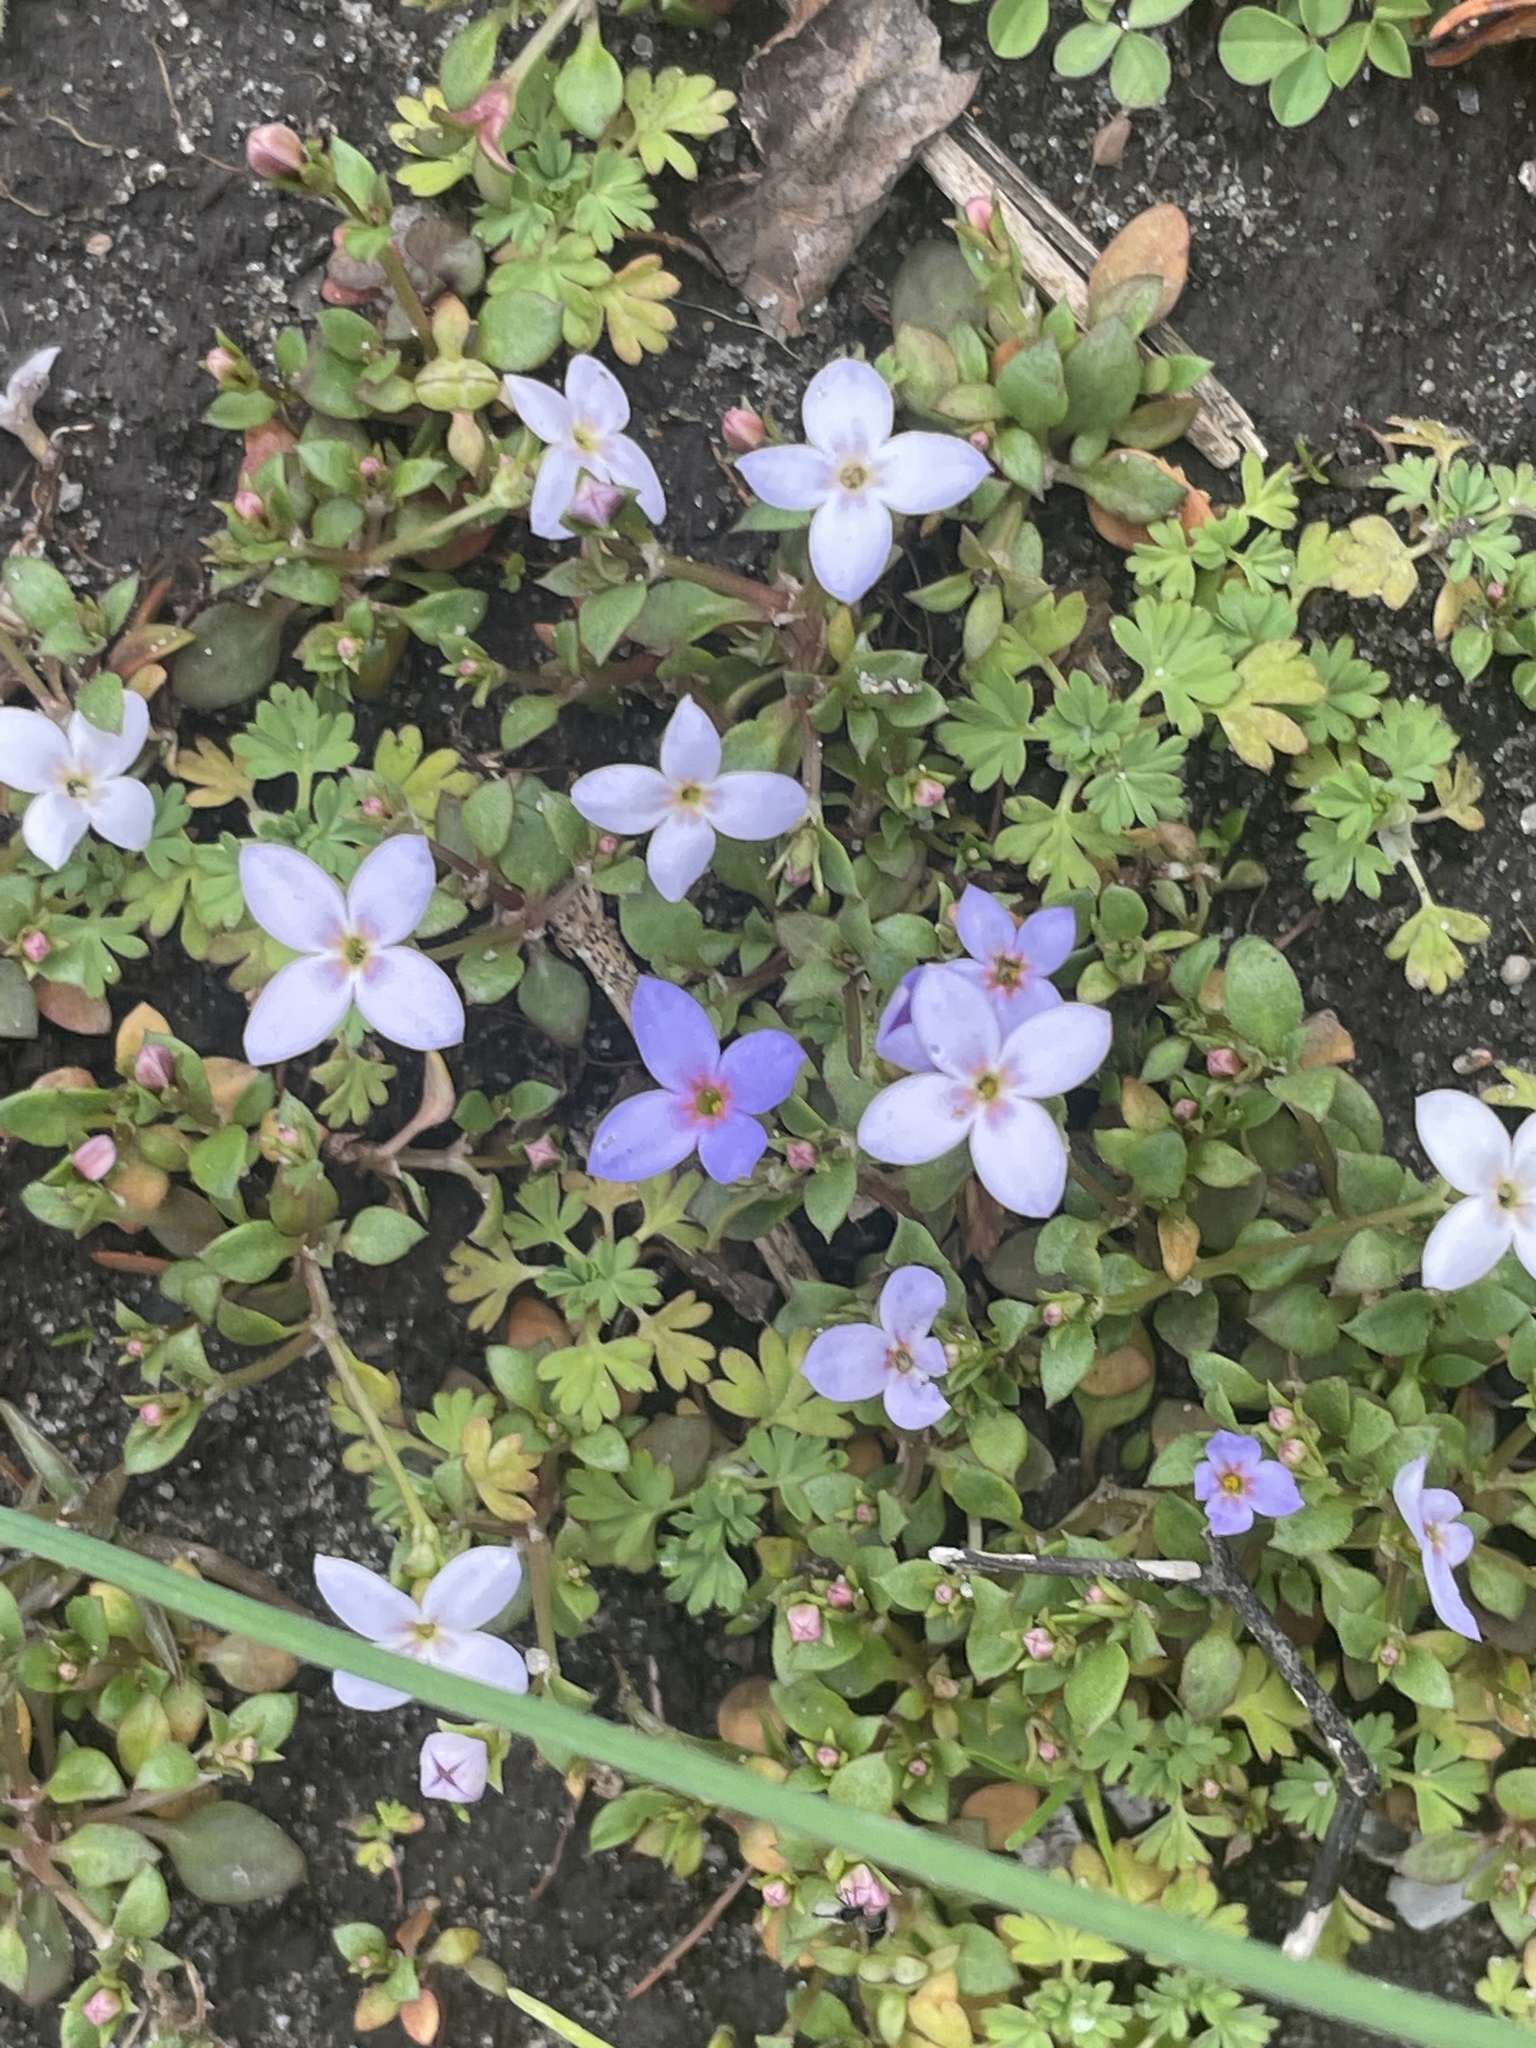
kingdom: Plantae
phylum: Tracheophyta
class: Magnoliopsida
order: Gentianales
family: Rubiaceae
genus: Houstonia
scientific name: Houstonia pusilla
